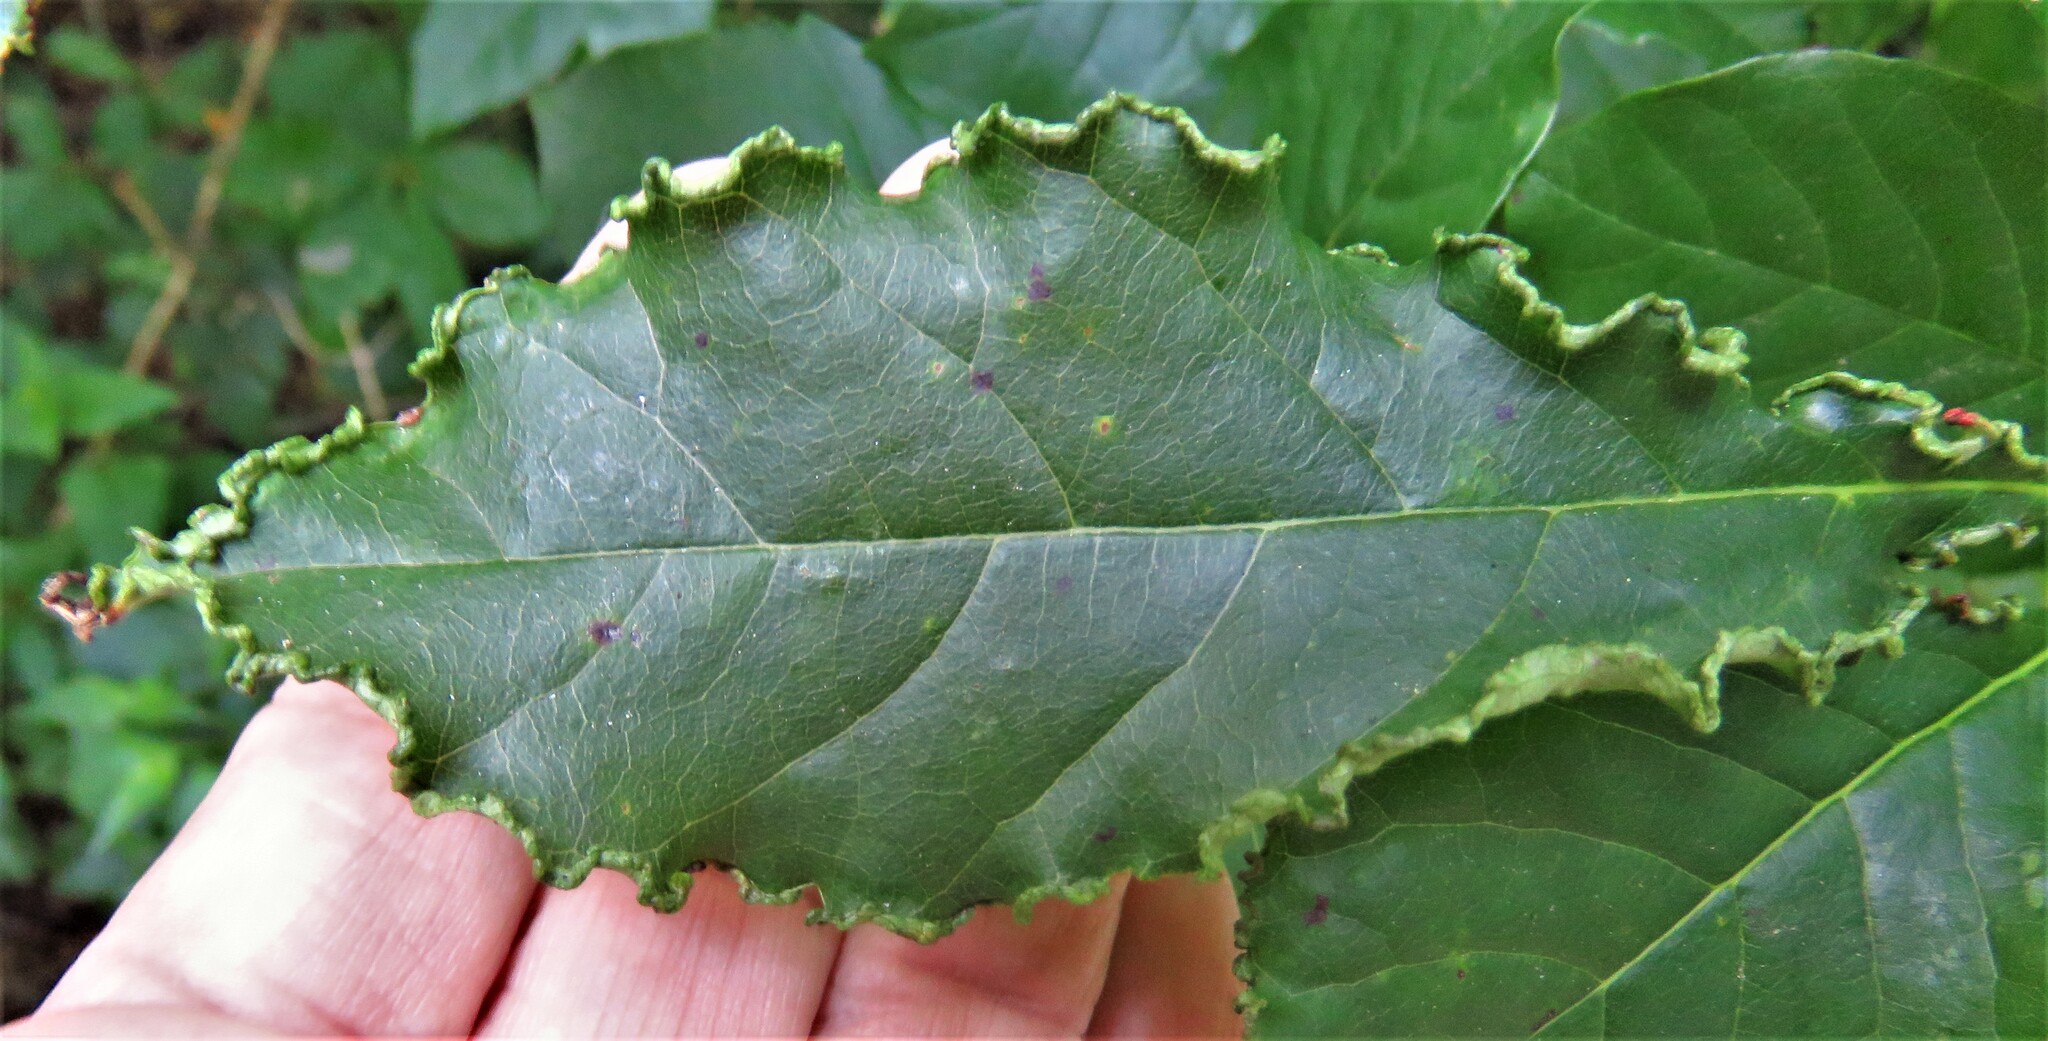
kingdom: Animalia
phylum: Arthropoda
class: Arachnida
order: Trombidiformes
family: Eriophyidae
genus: Aceria
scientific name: Aceria
